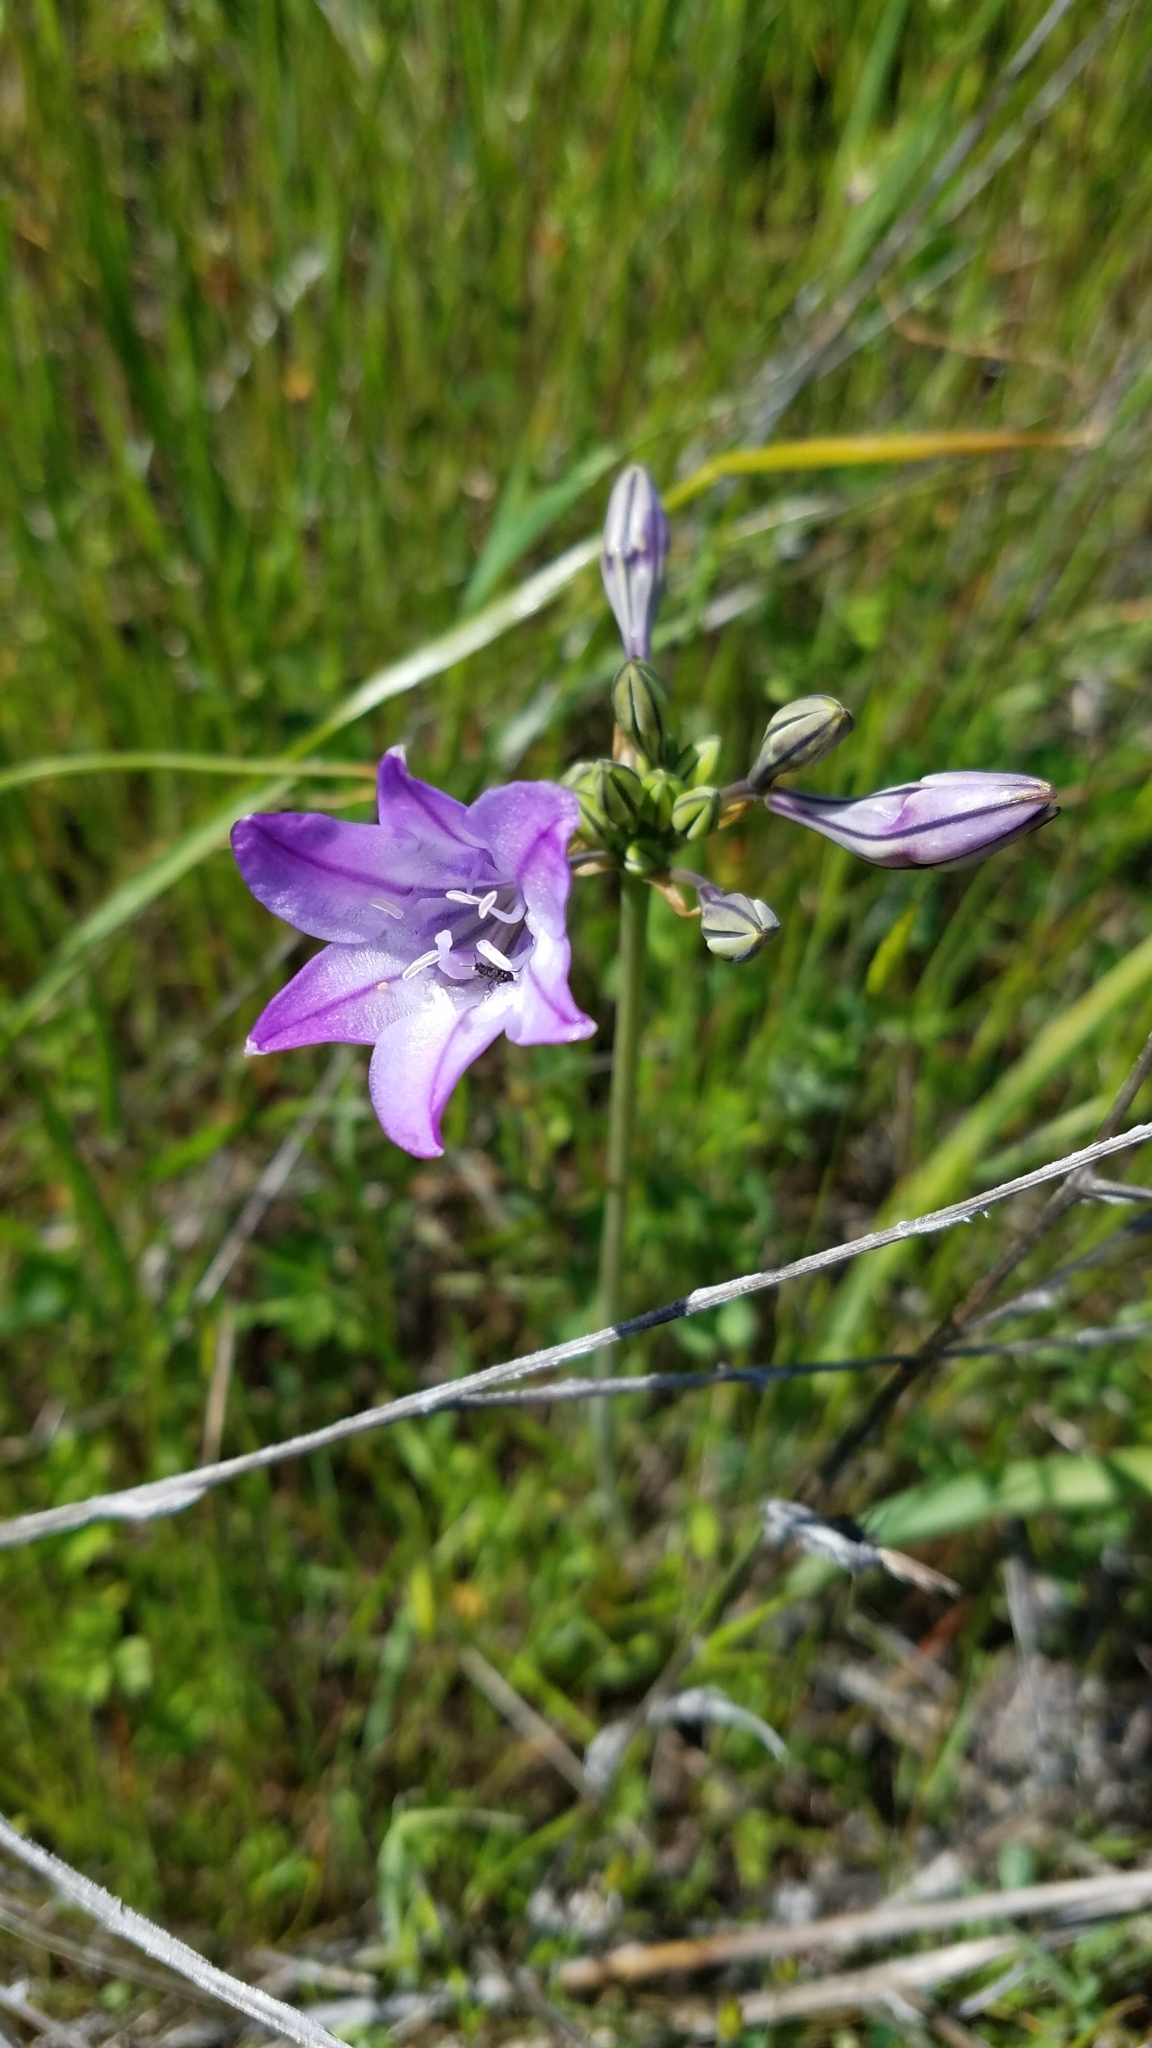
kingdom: Plantae
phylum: Tracheophyta
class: Liliopsida
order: Asparagales
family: Asparagaceae
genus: Triteleia
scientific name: Triteleia laxa
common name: Triplet-lily
